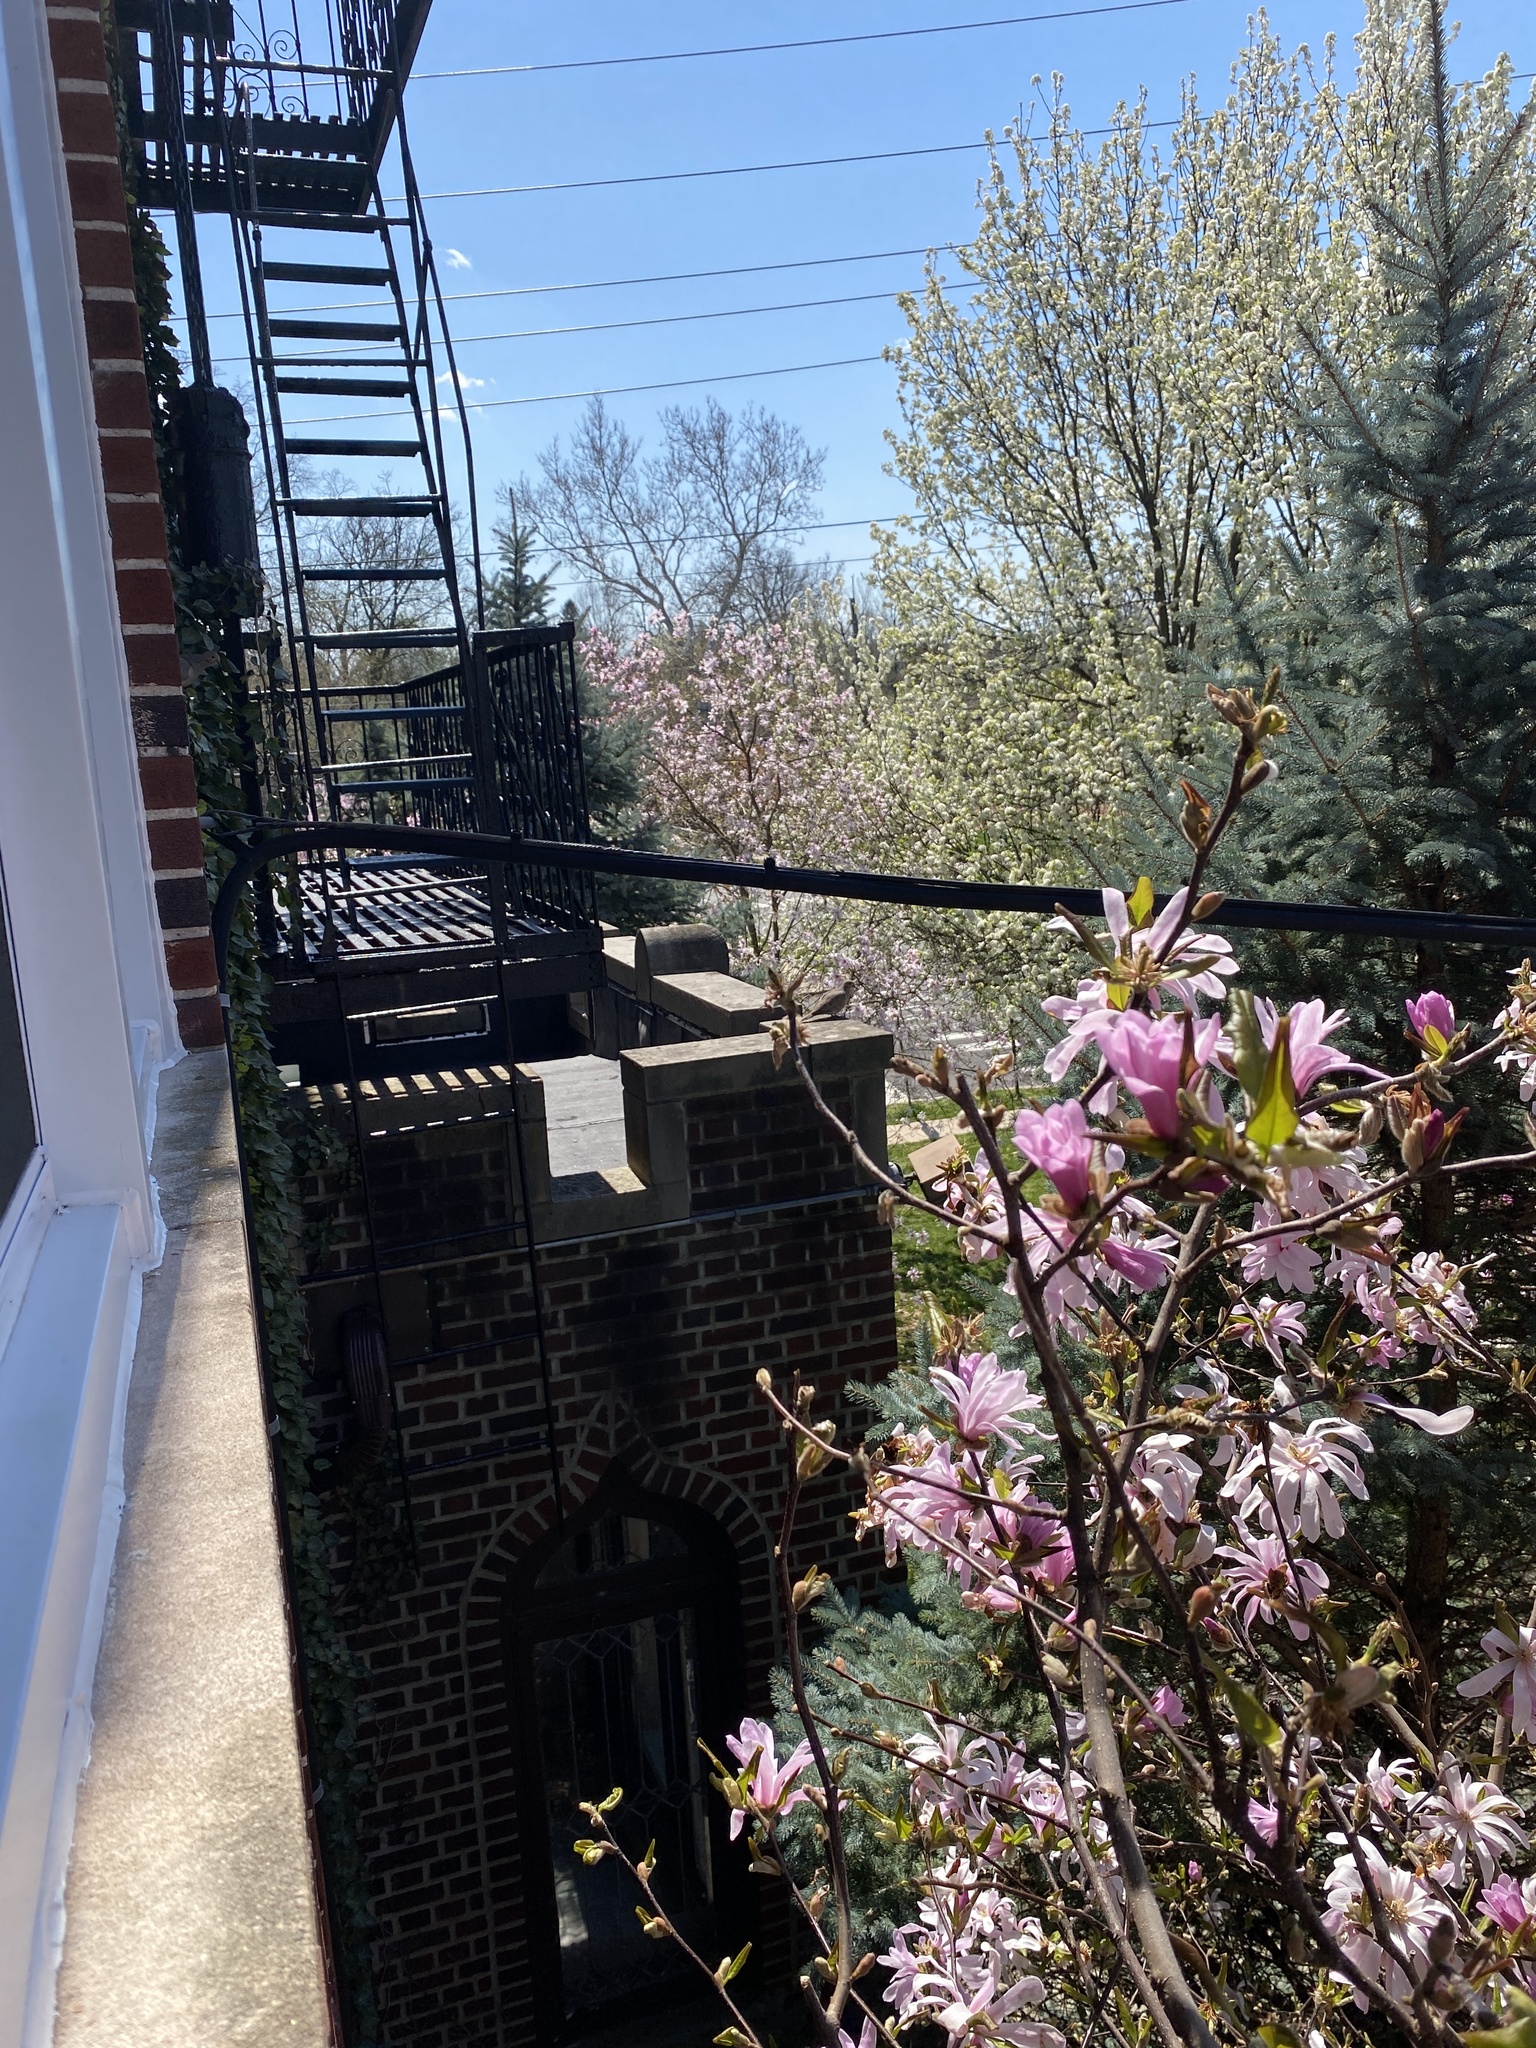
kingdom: Animalia
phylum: Chordata
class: Aves
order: Columbiformes
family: Columbidae
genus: Zenaida
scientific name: Zenaida macroura
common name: Mourning dove
